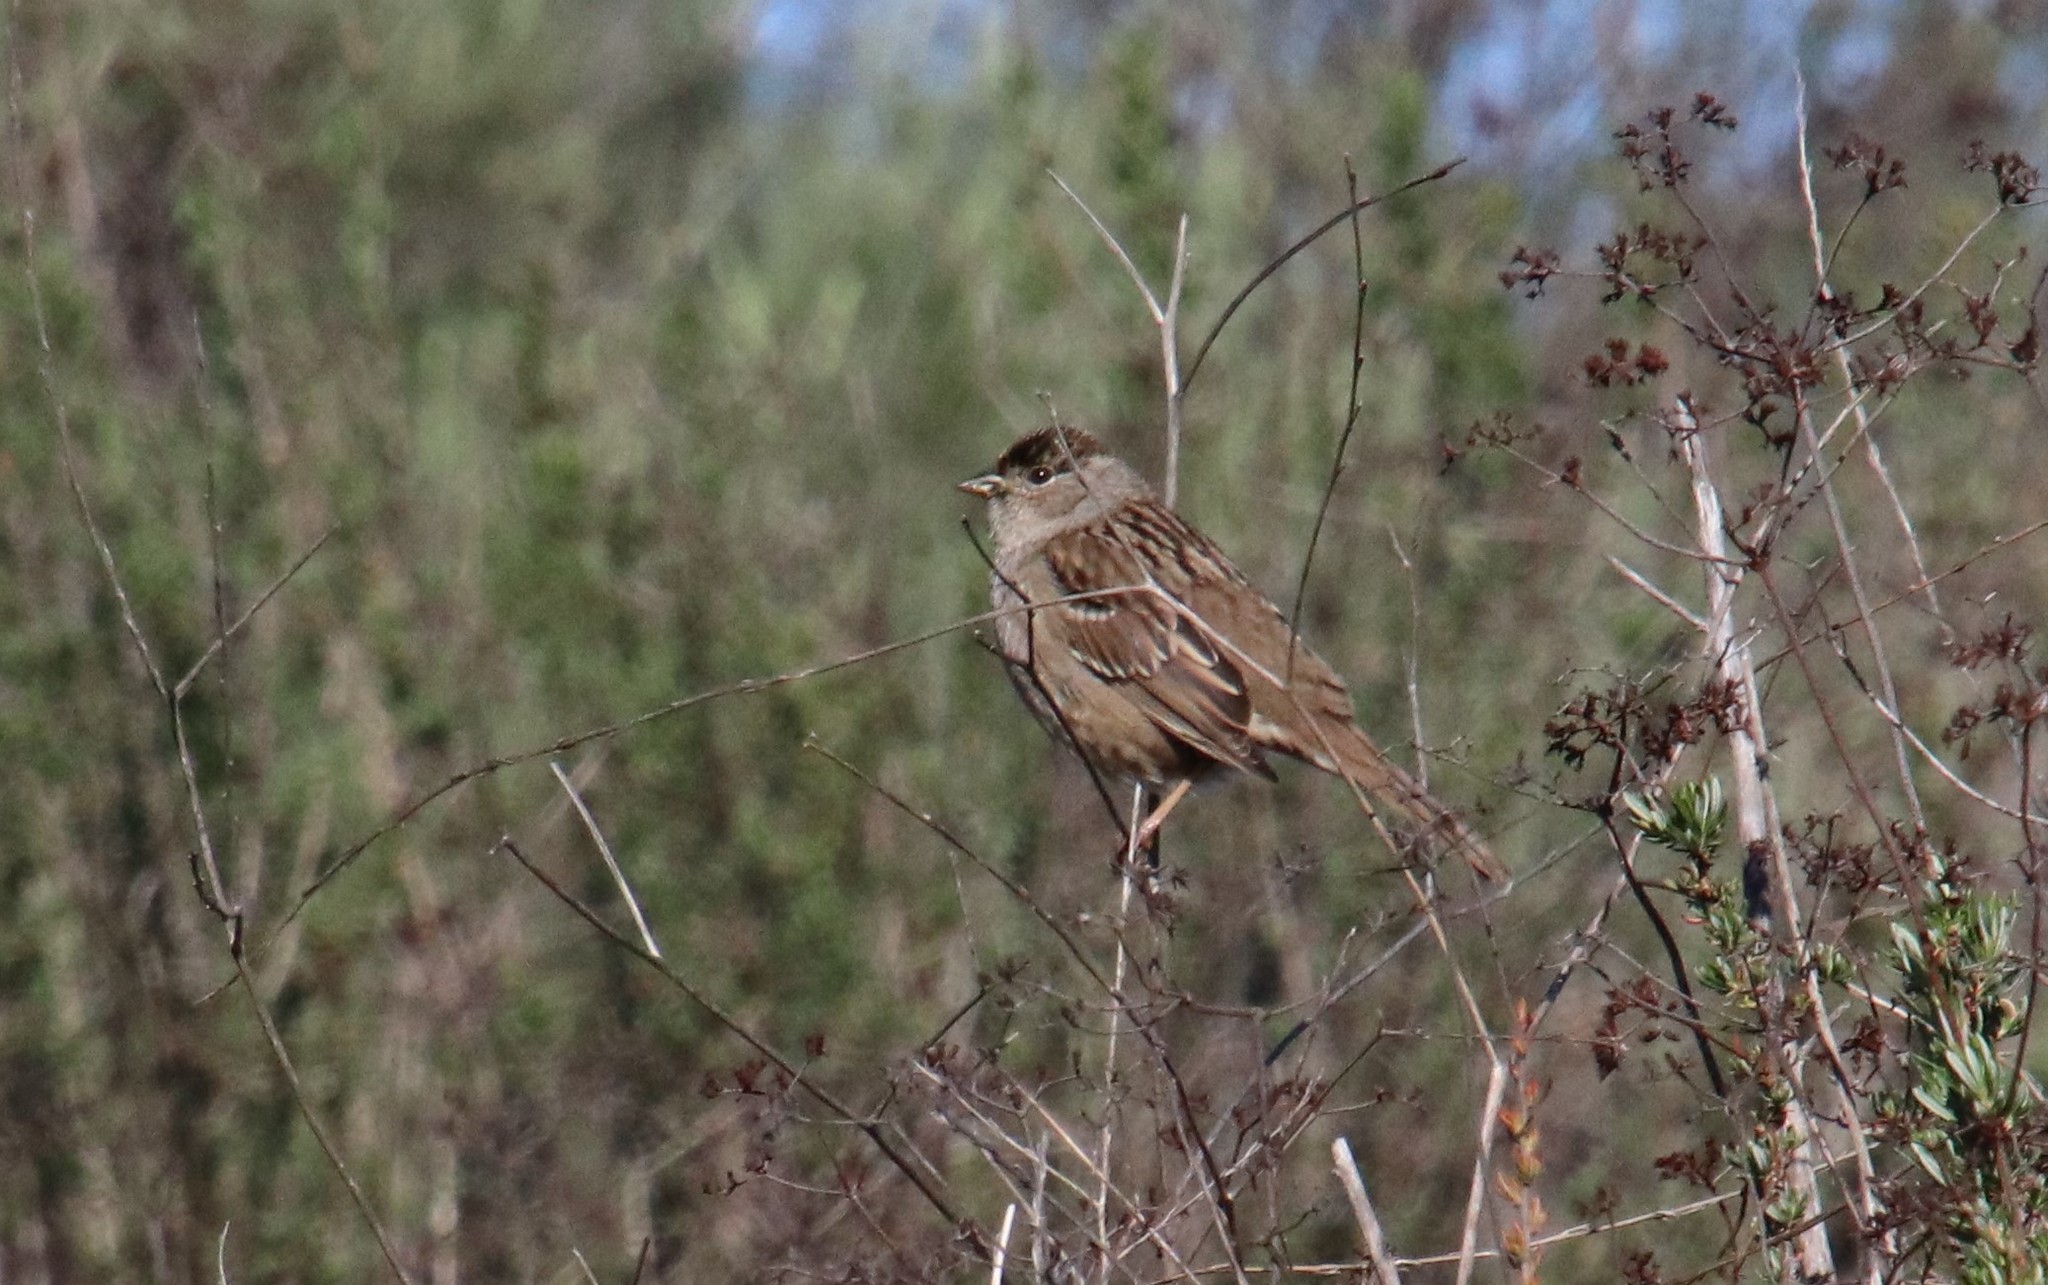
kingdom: Animalia
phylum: Chordata
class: Aves
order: Passeriformes
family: Passerellidae
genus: Zonotrichia
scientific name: Zonotrichia atricapilla
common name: Golden-crowned sparrow
